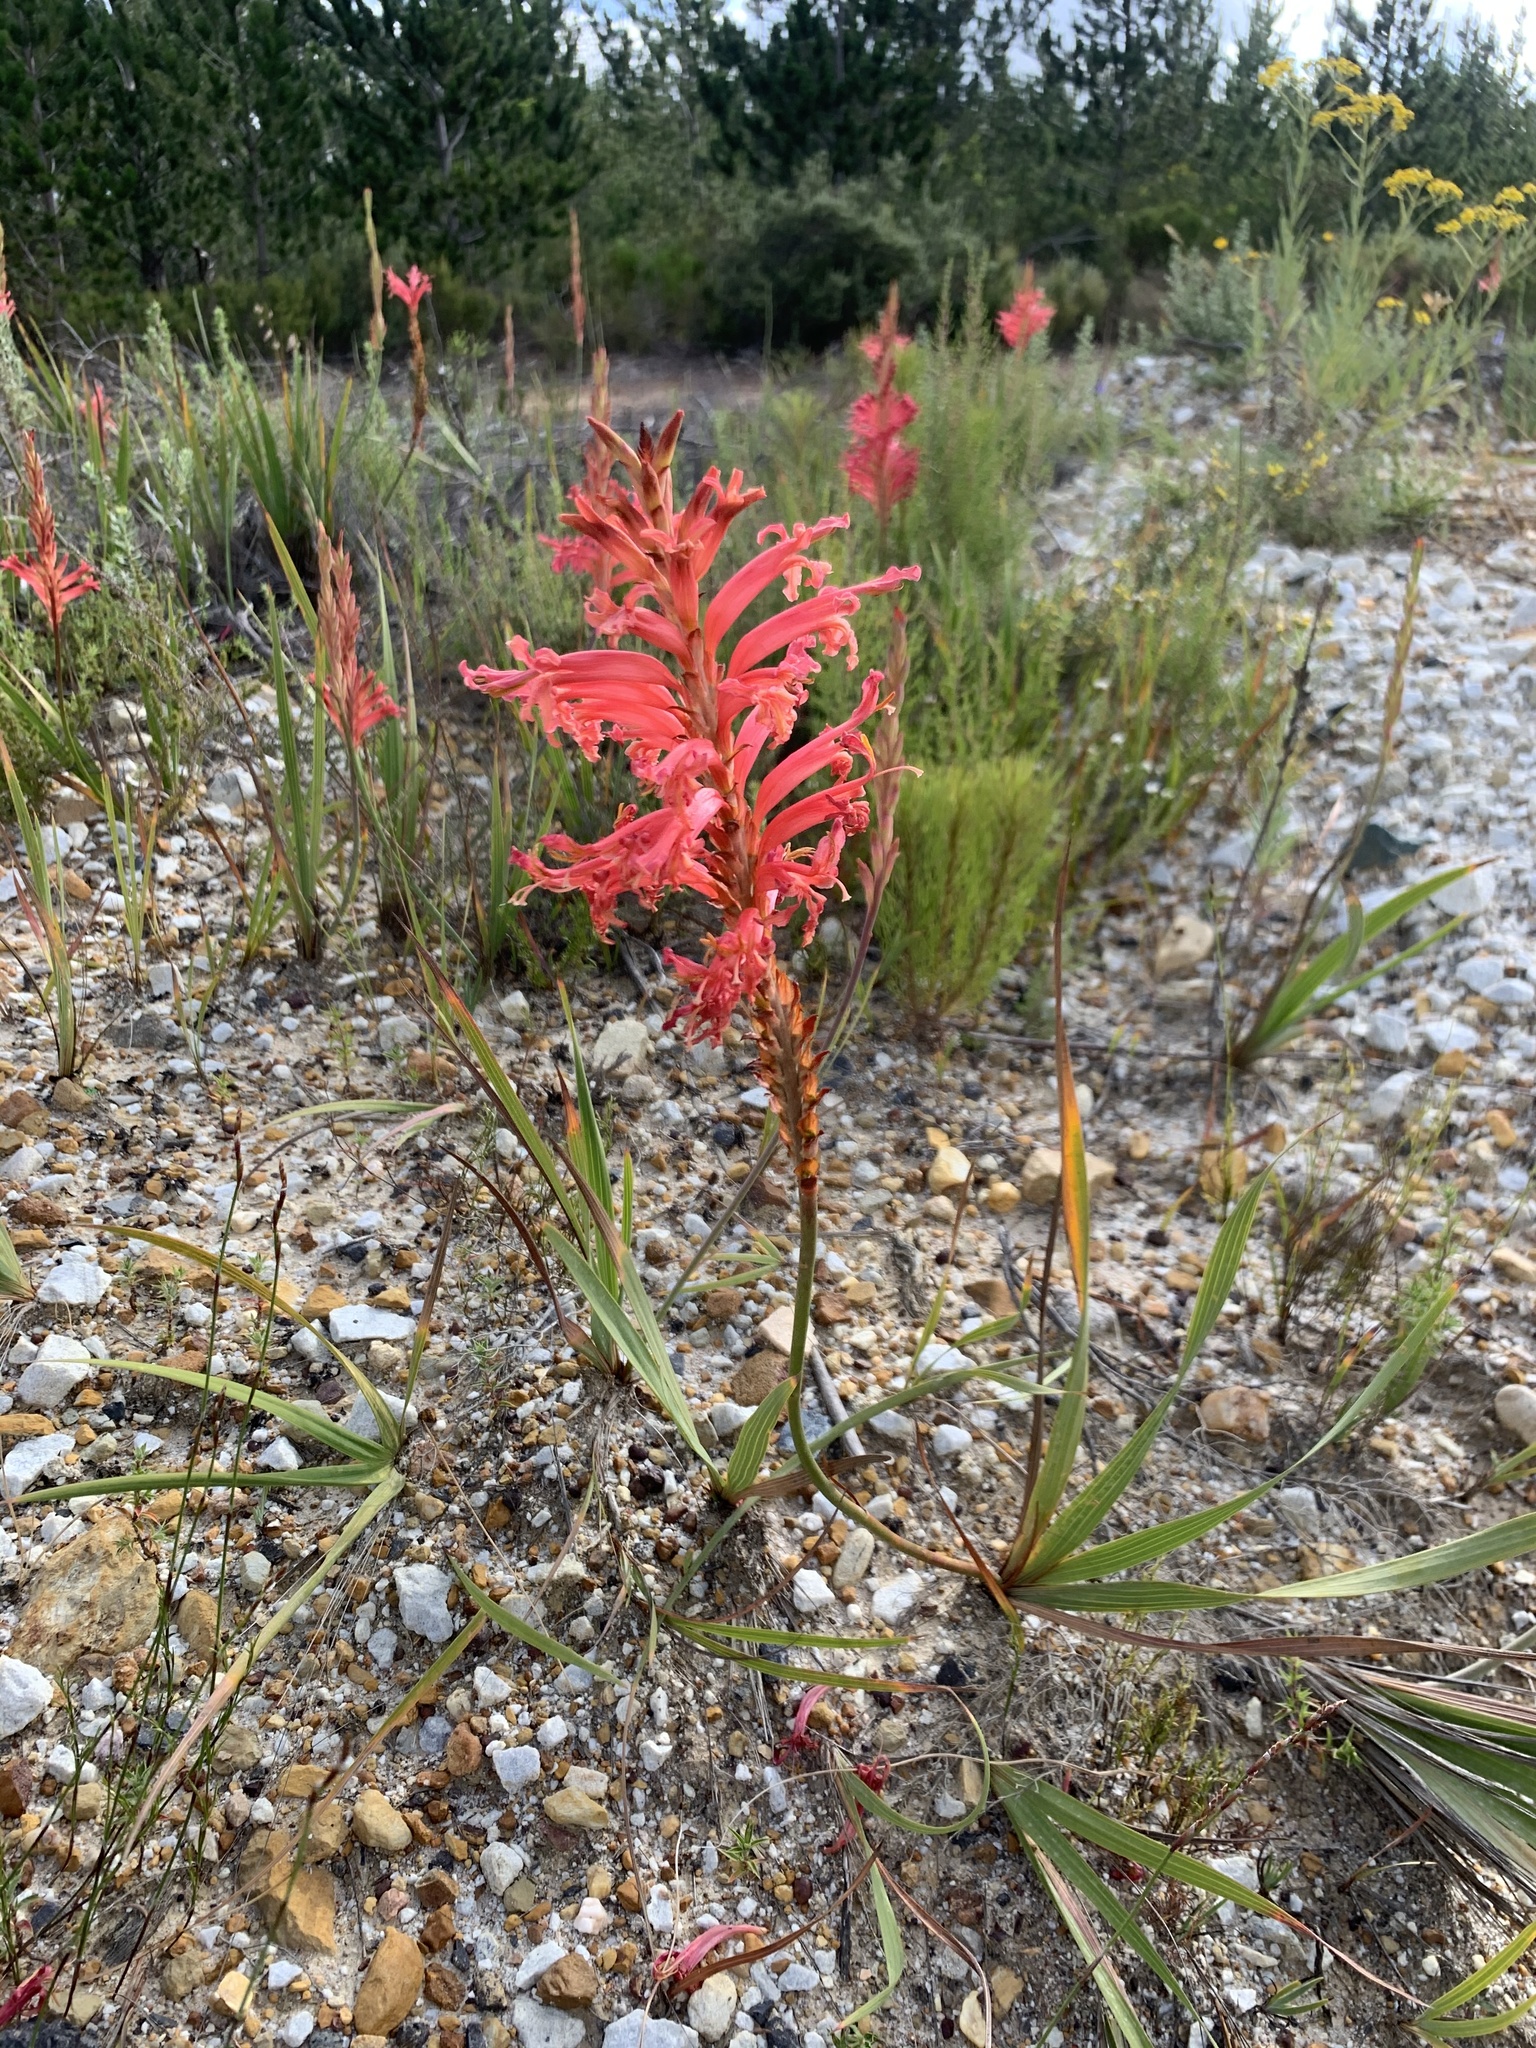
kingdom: Plantae
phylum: Tracheophyta
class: Liliopsida
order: Asparagales
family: Iridaceae
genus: Tritoniopsis
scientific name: Tritoniopsis antholyza
